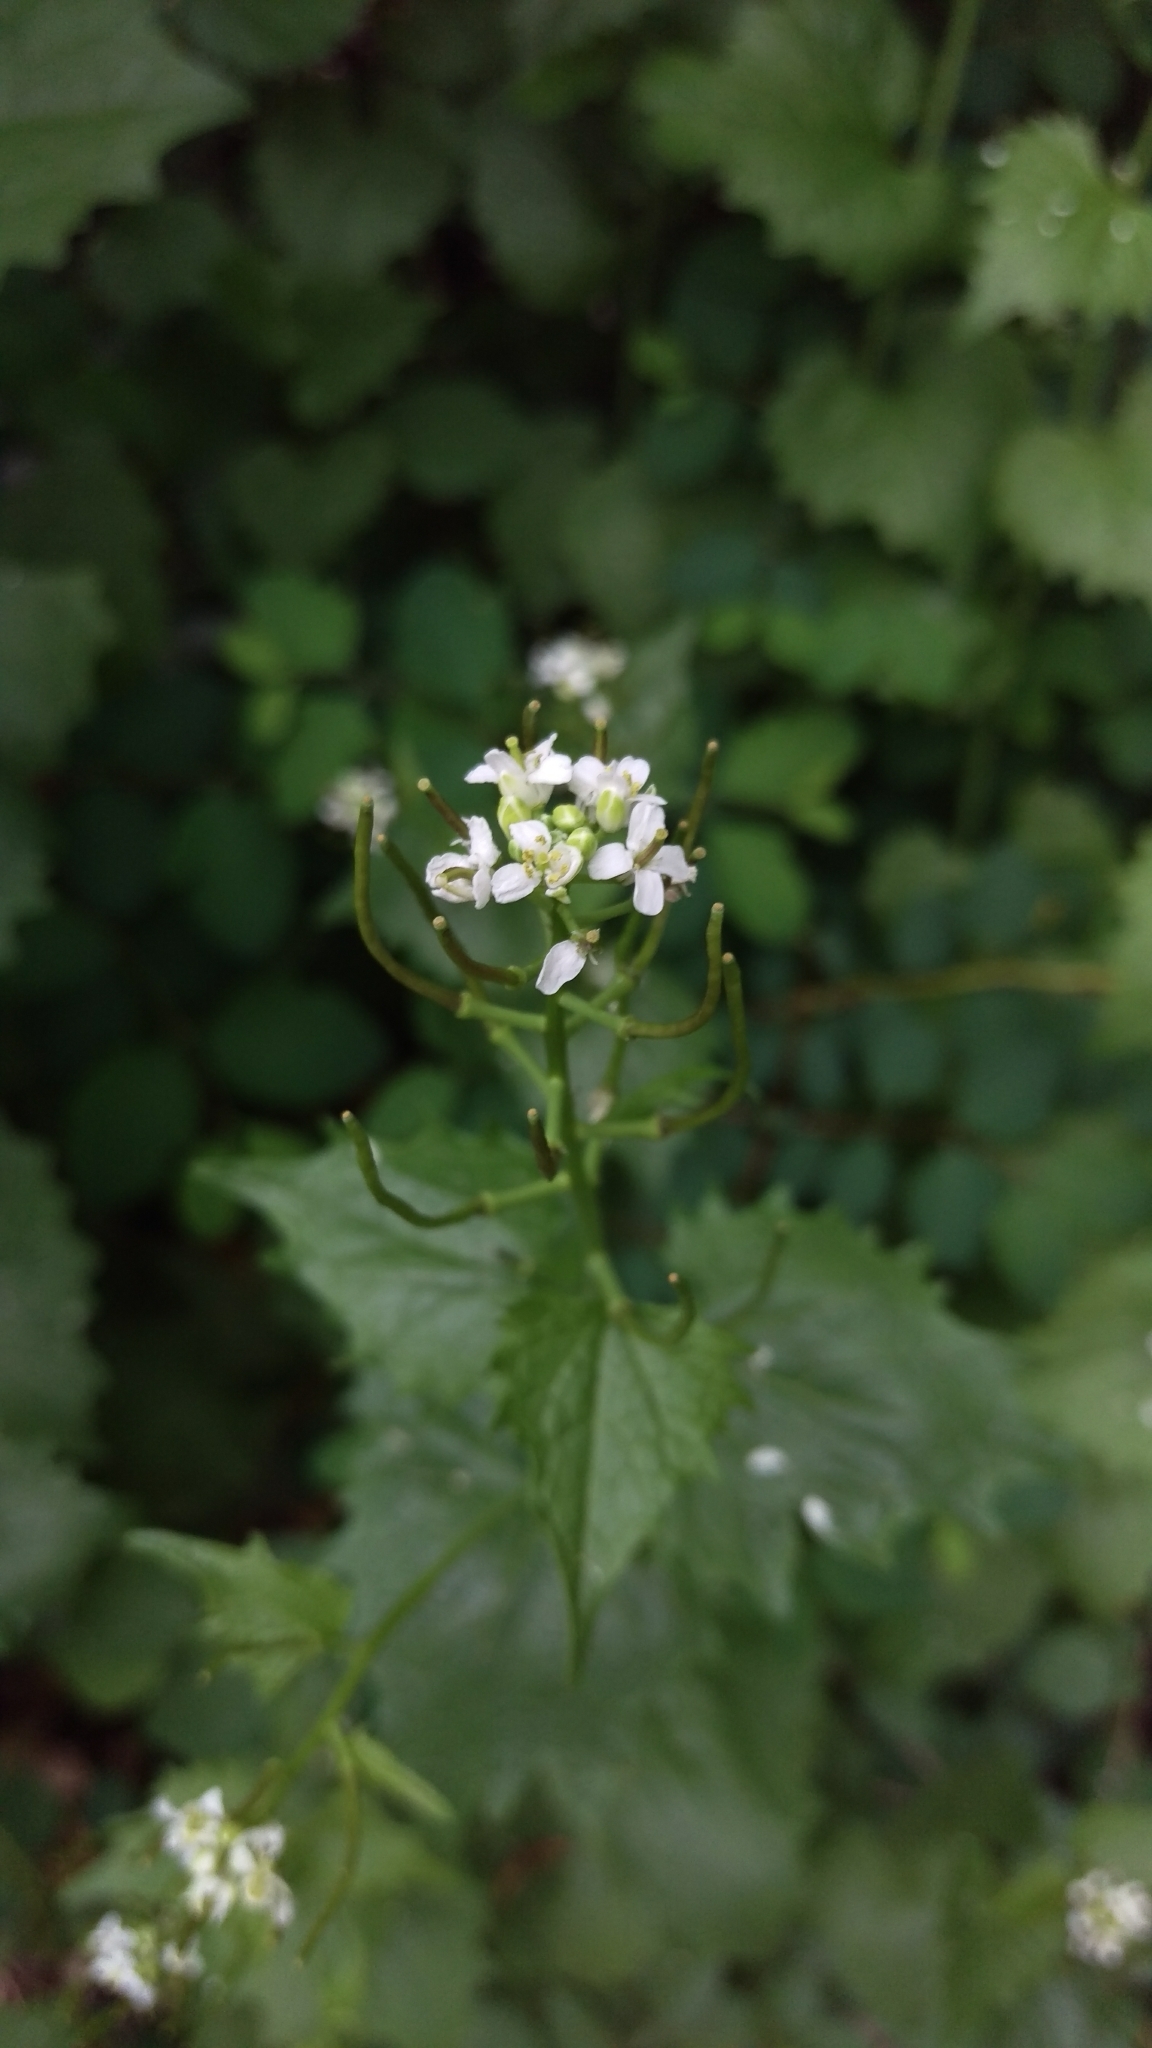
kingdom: Plantae
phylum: Tracheophyta
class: Magnoliopsida
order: Brassicales
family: Brassicaceae
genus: Alliaria
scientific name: Alliaria petiolata
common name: Garlic mustard
